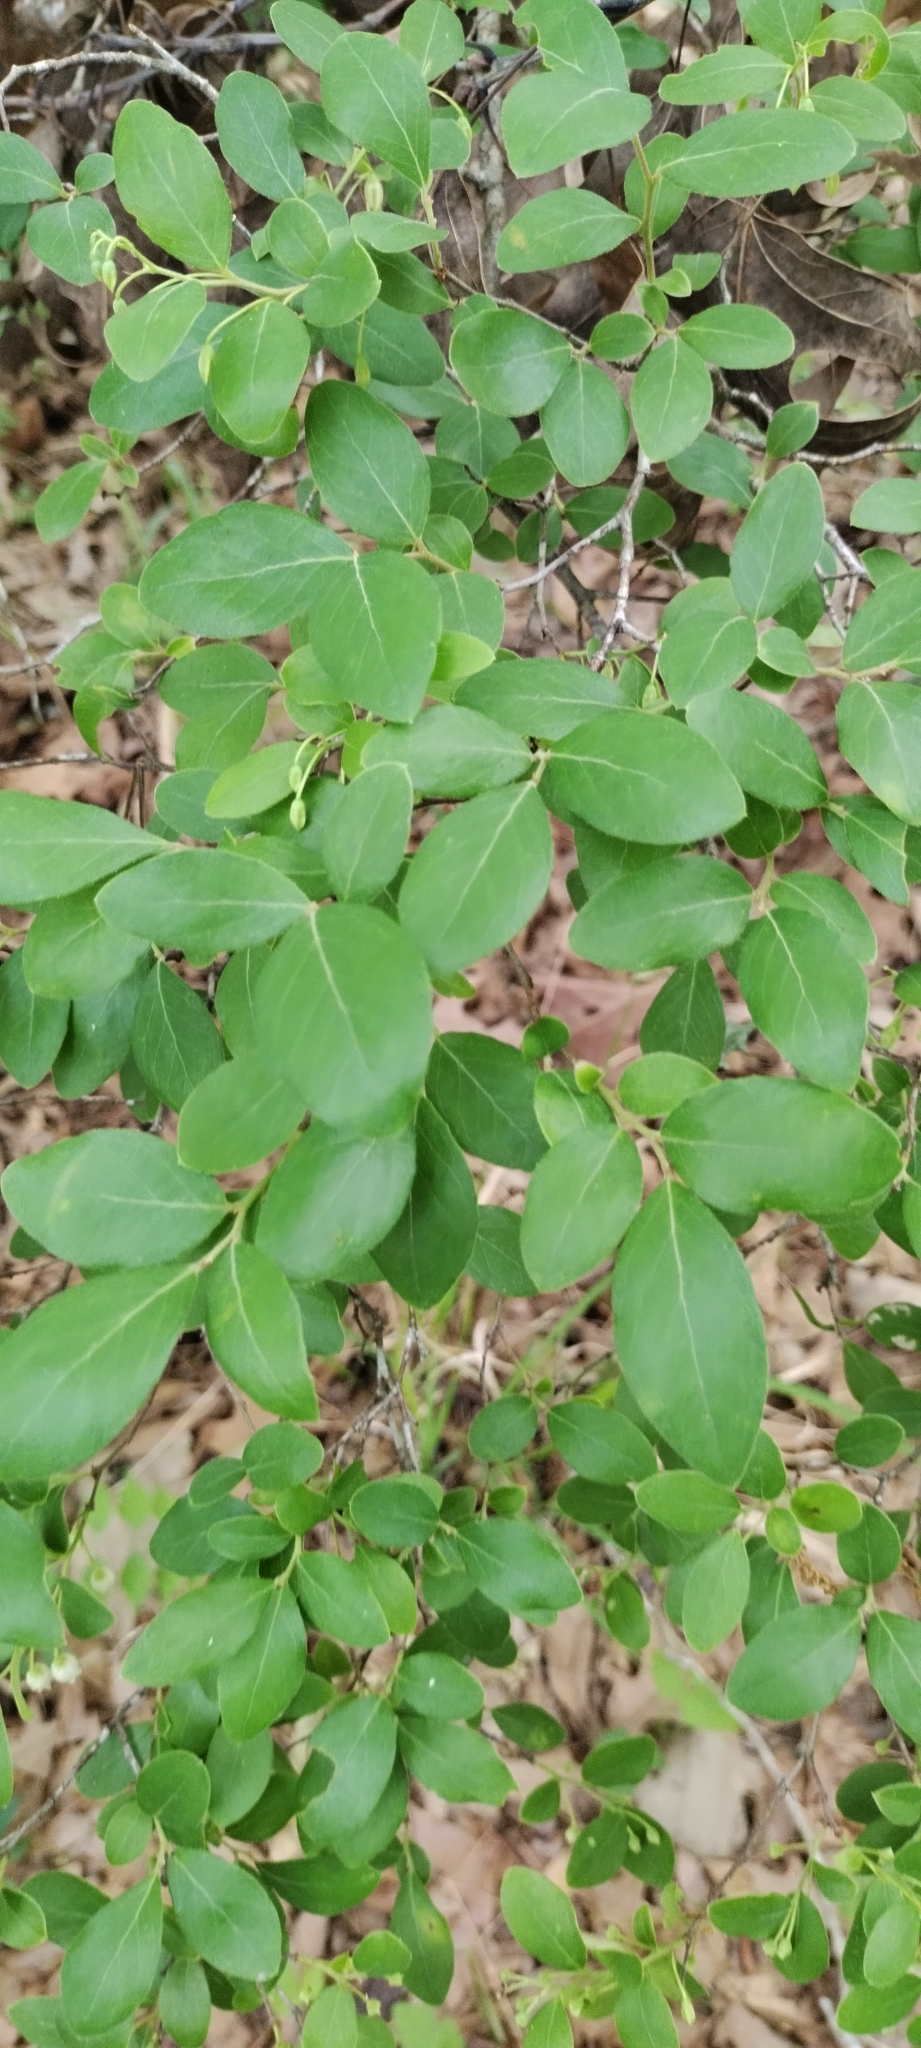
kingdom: Plantae
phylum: Tracheophyta
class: Magnoliopsida
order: Ericales
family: Ericaceae
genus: Vaccinium
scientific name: Vaccinium arboreum
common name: Farkleberry
